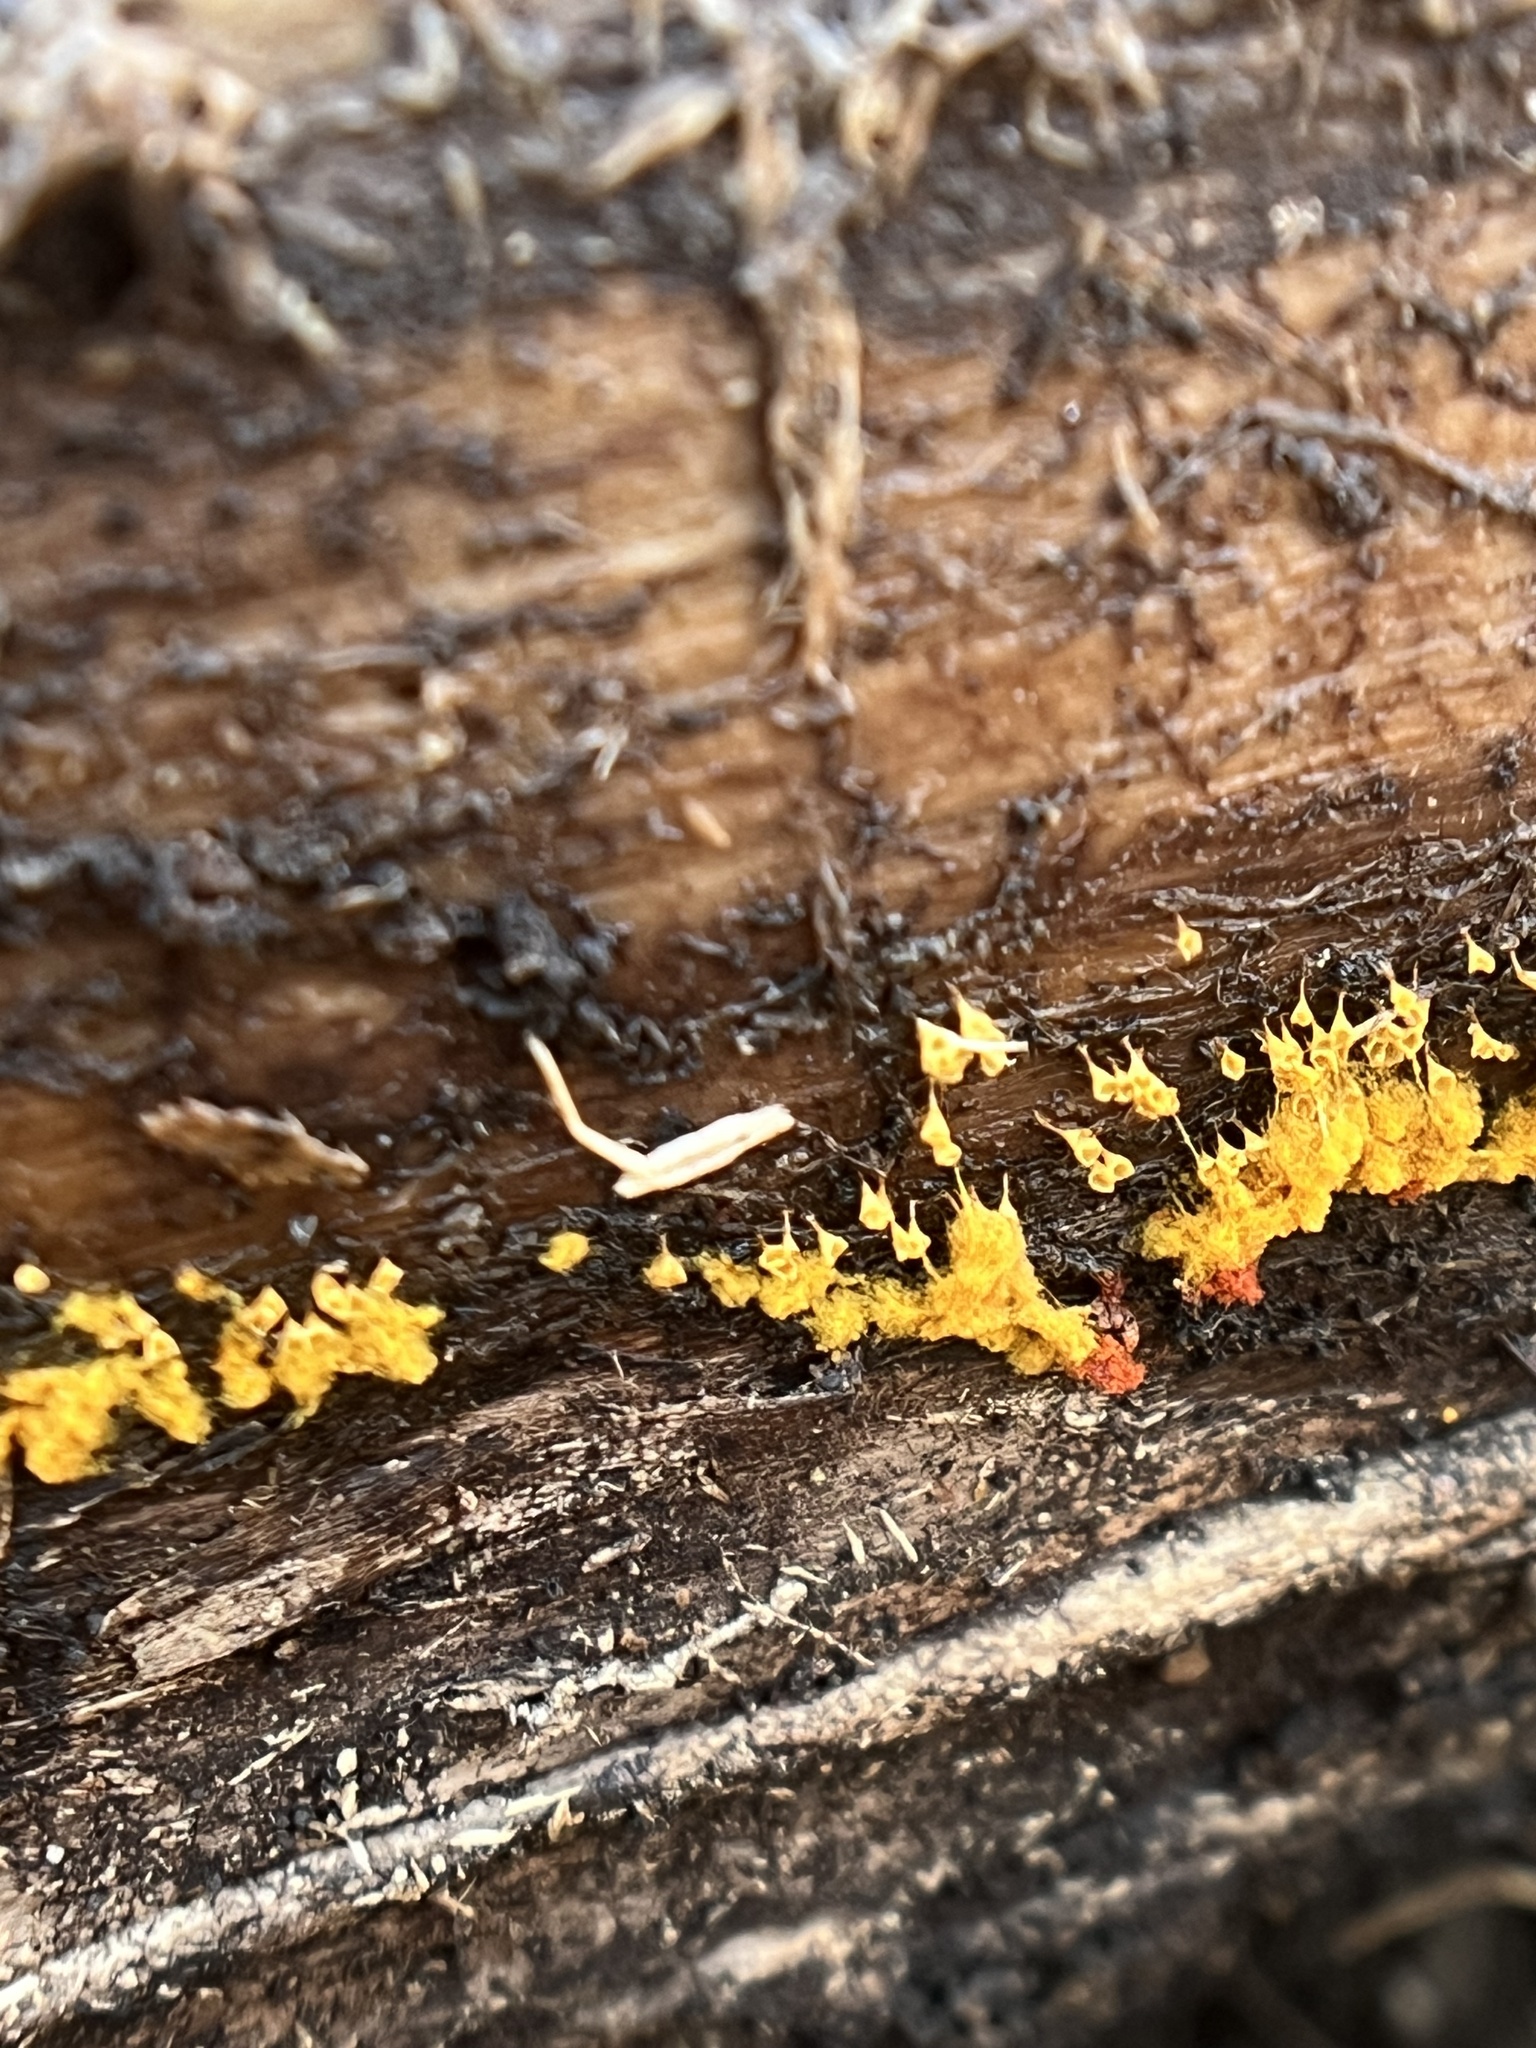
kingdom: Protozoa
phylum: Mycetozoa
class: Myxomycetes
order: Trichiales
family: Arcyriaceae
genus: Hemitrichia
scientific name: Hemitrichia calyculata
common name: Push pin slime mold
